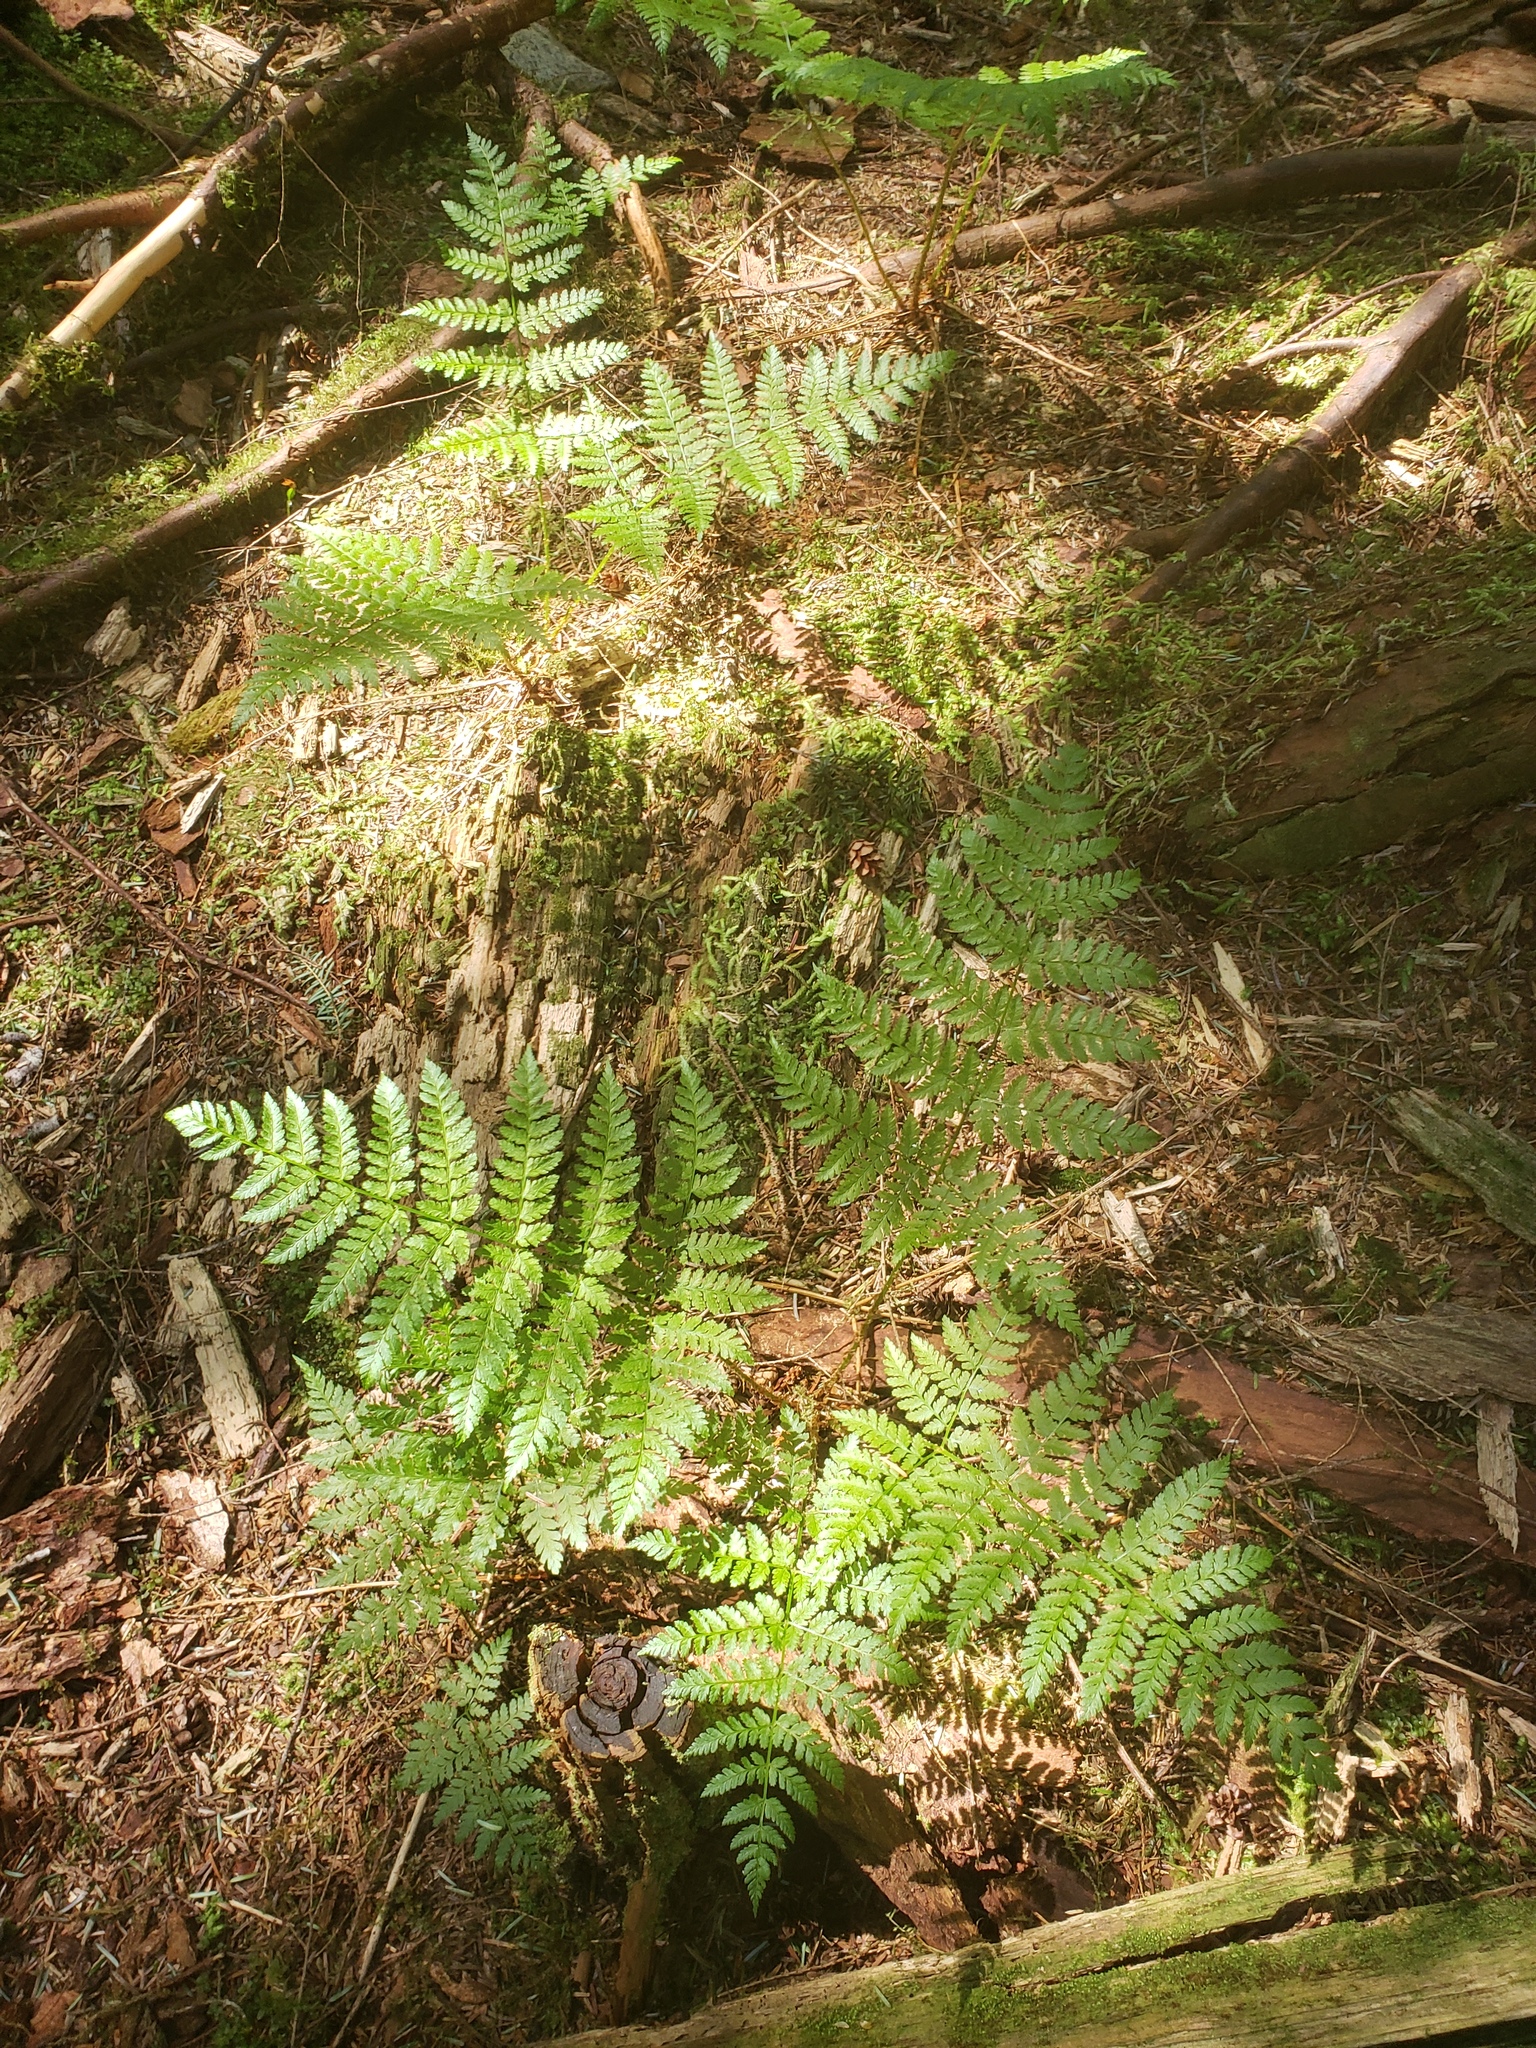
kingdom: Plantae
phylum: Tracheophyta
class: Polypodiopsida
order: Polypodiales
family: Dryopteridaceae
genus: Dryopteris
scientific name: Dryopteris expansa
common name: Northern buckler fern
